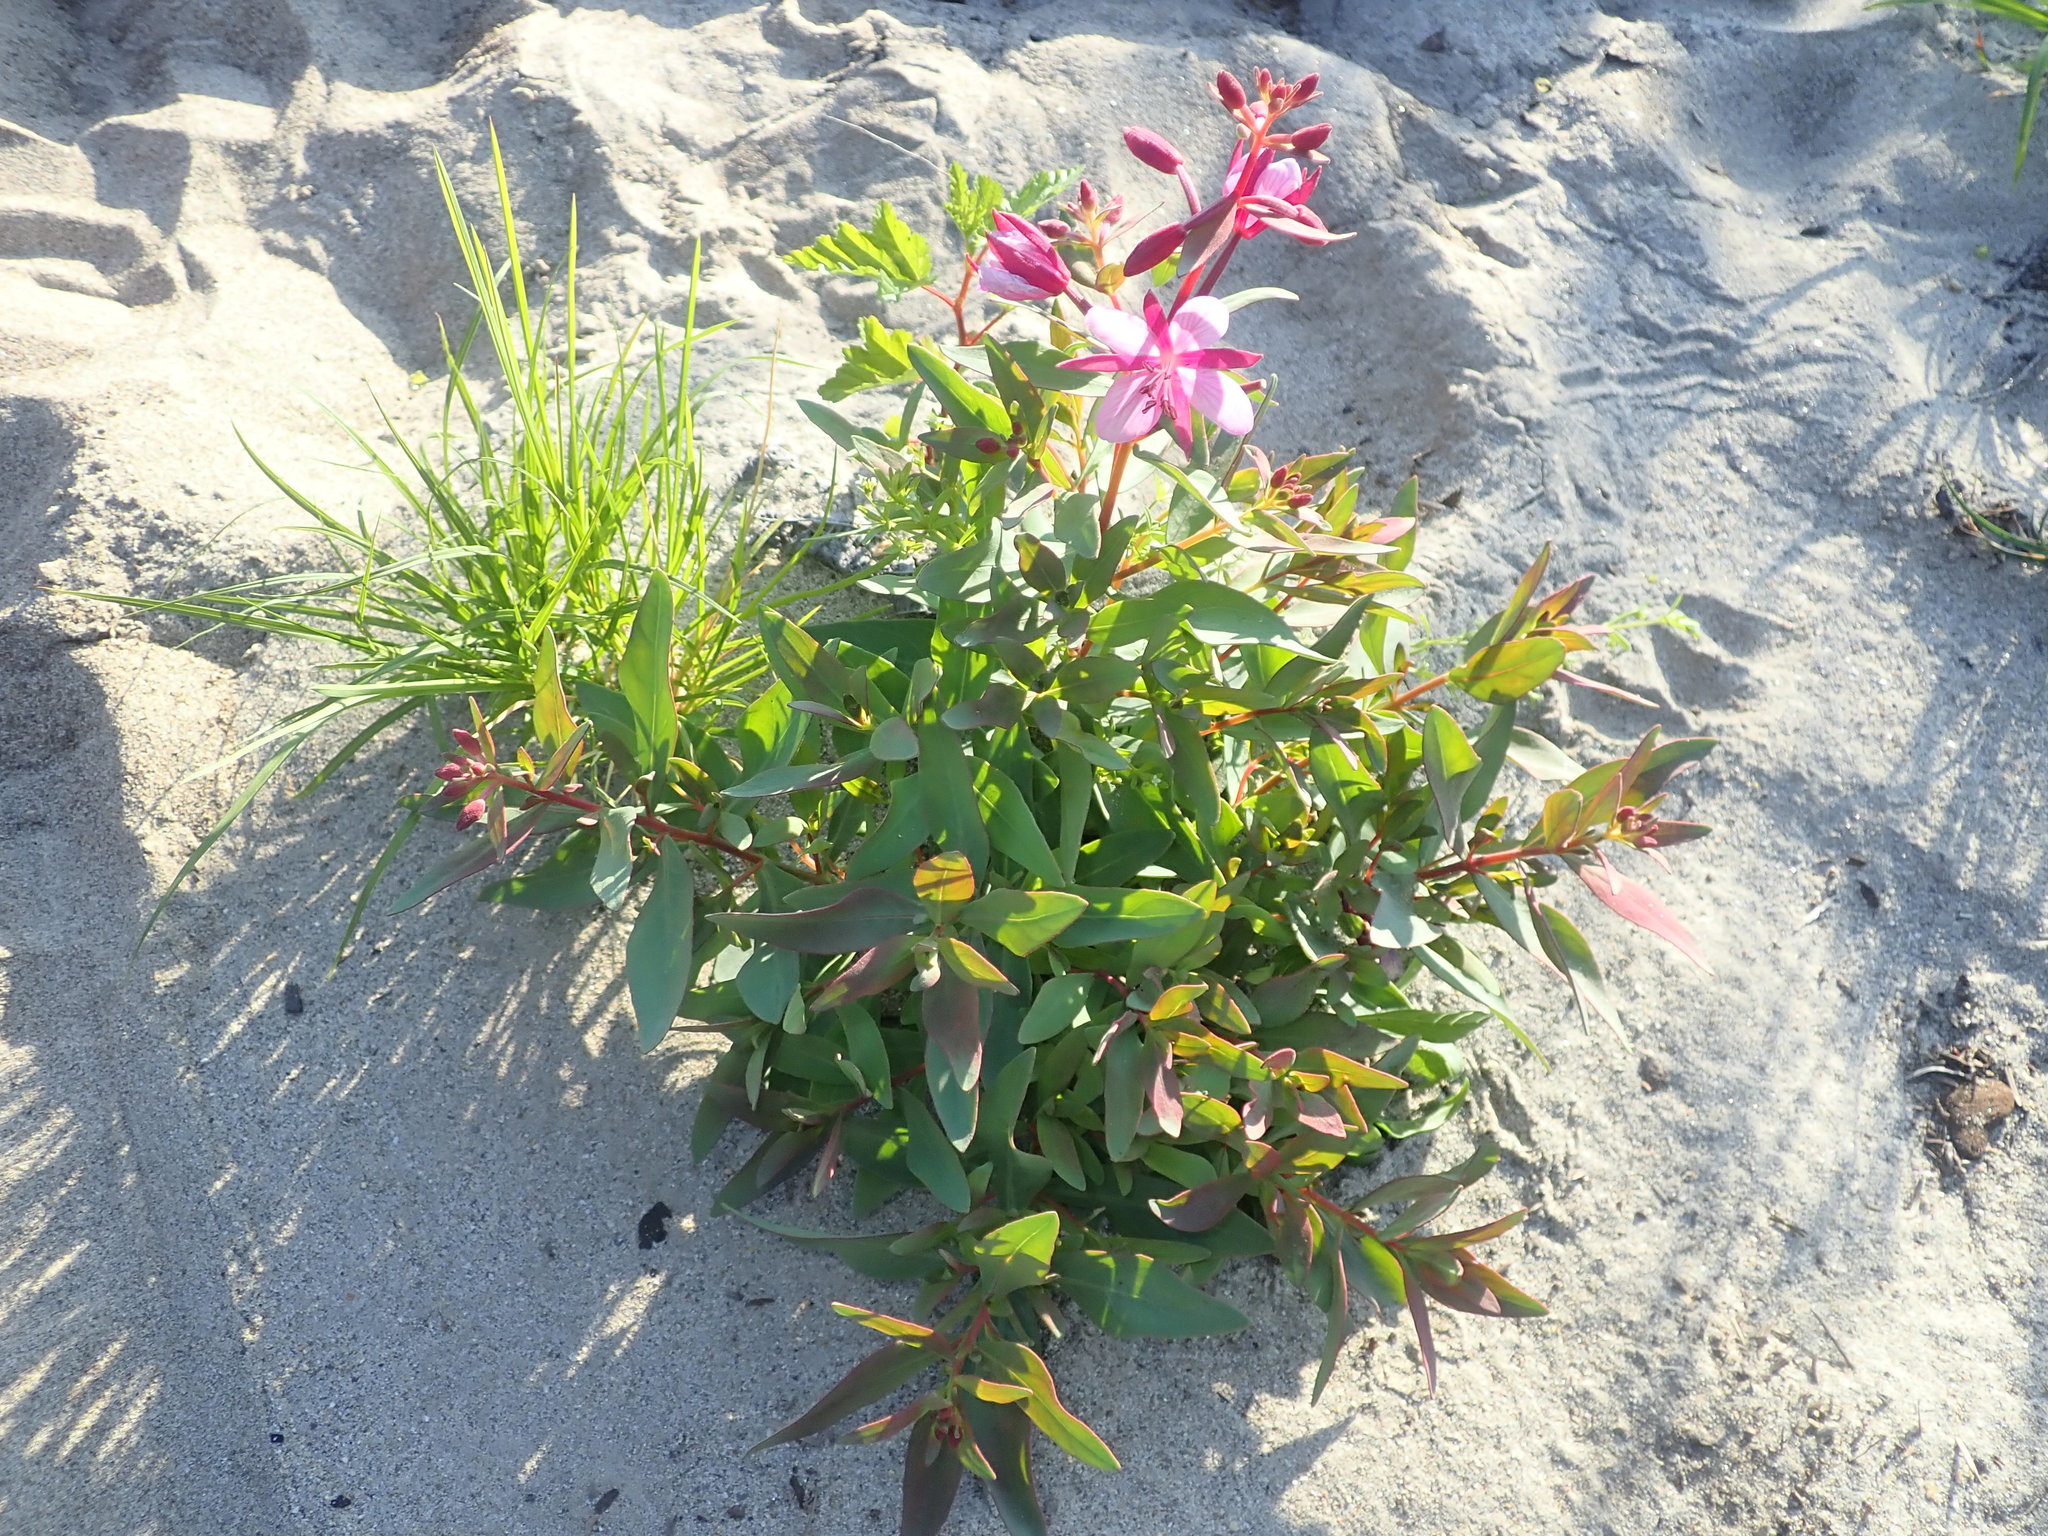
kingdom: Plantae
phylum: Tracheophyta
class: Magnoliopsida
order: Myrtales
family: Onagraceae
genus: Chamaenerion
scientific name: Chamaenerion latifolium
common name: Dwarf fireweed
